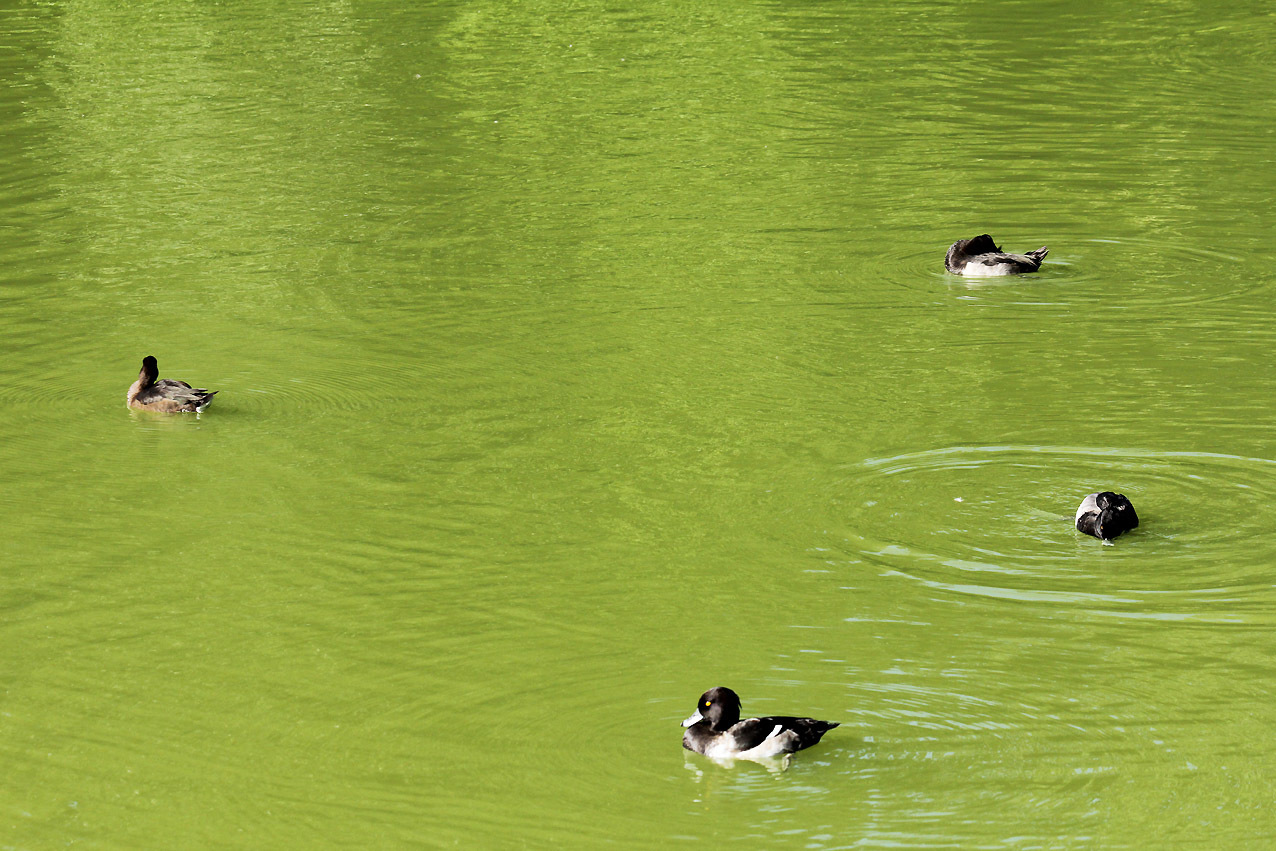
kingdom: Animalia
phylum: Chordata
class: Aves
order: Anseriformes
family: Anatidae
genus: Aythya
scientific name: Aythya fuligula
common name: Tufted duck
